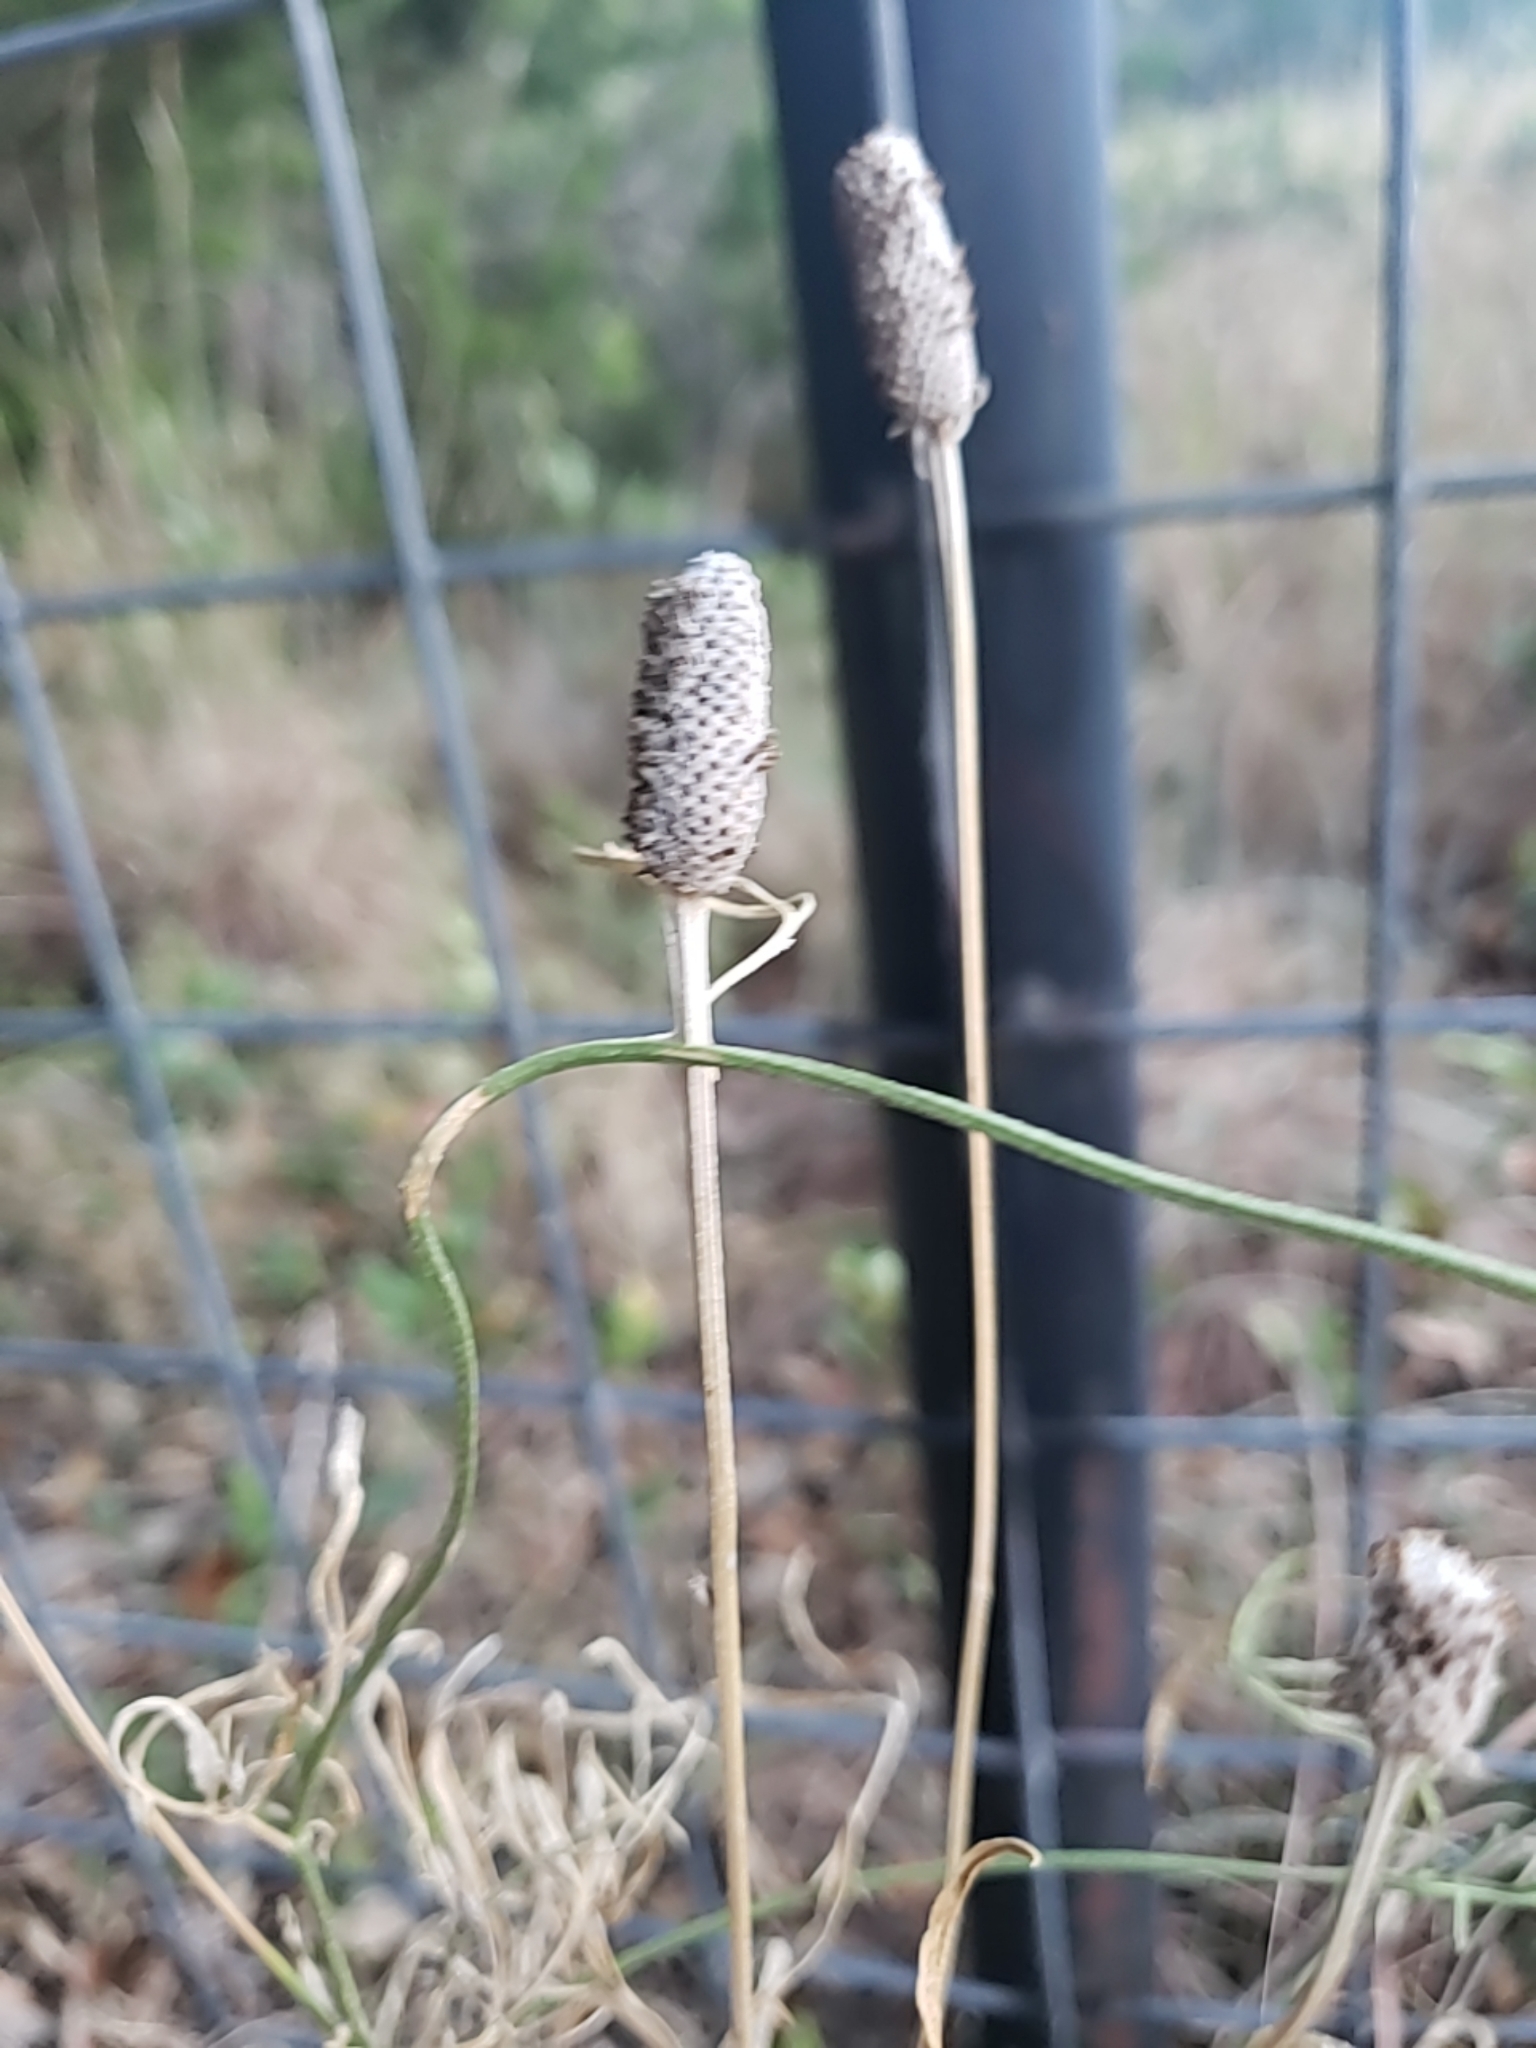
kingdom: Plantae
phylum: Tracheophyta
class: Magnoliopsida
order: Asterales
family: Asteraceae
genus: Ratibida
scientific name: Ratibida columnifera
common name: Prairie coneflower
